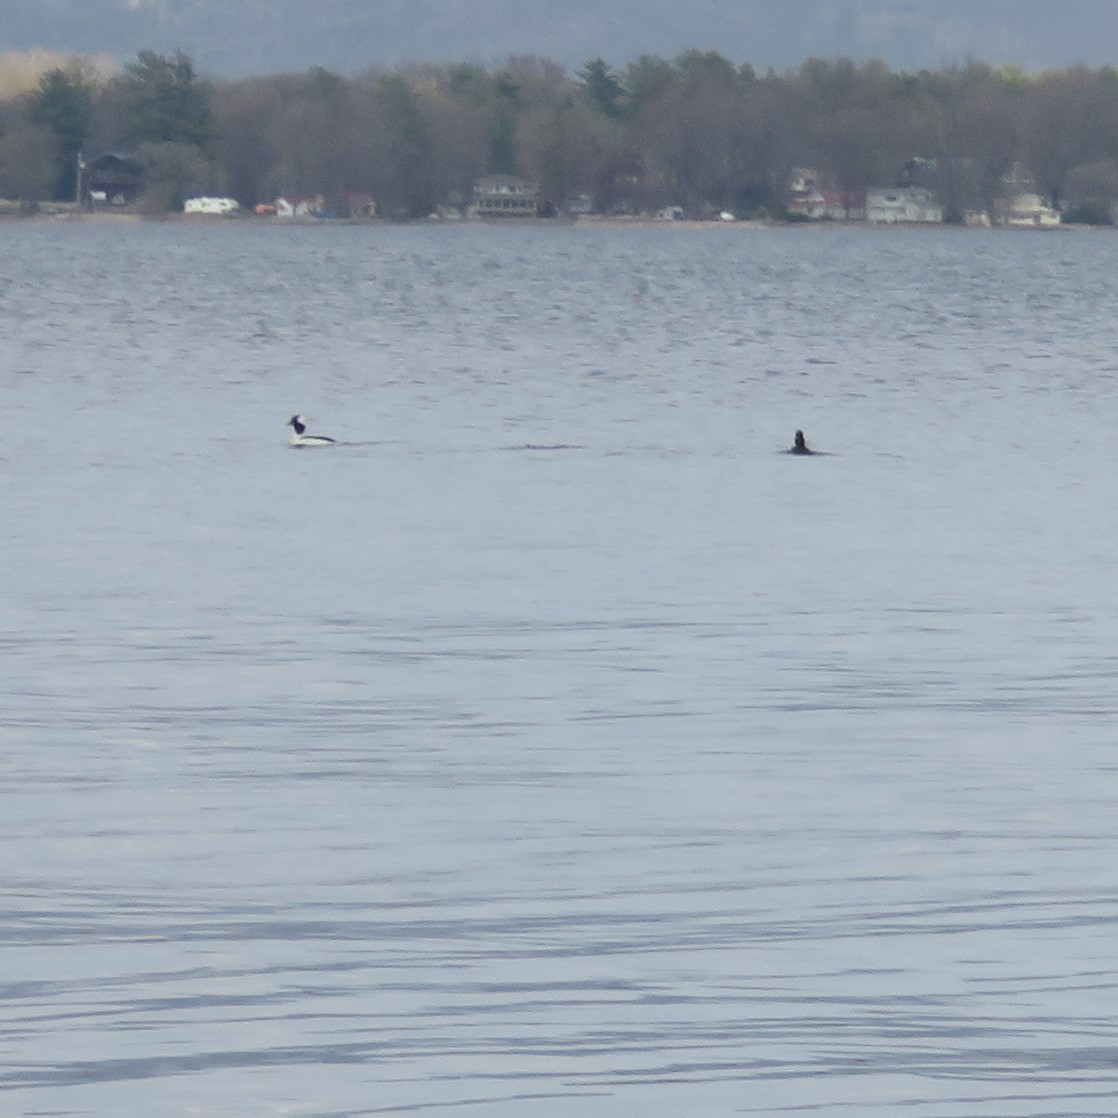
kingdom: Animalia
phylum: Chordata
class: Aves
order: Anseriformes
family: Anatidae
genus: Bucephala
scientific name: Bucephala albeola
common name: Bufflehead
